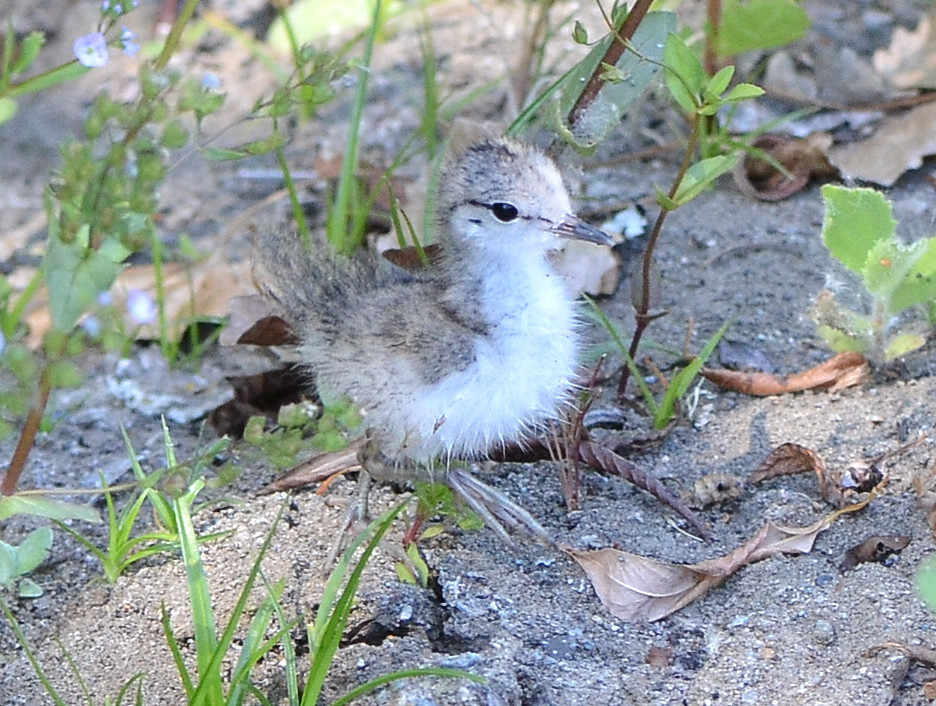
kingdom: Animalia
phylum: Chordata
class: Aves
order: Charadriiformes
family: Scolopacidae
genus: Actitis
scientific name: Actitis macularius
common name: Spotted sandpiper
